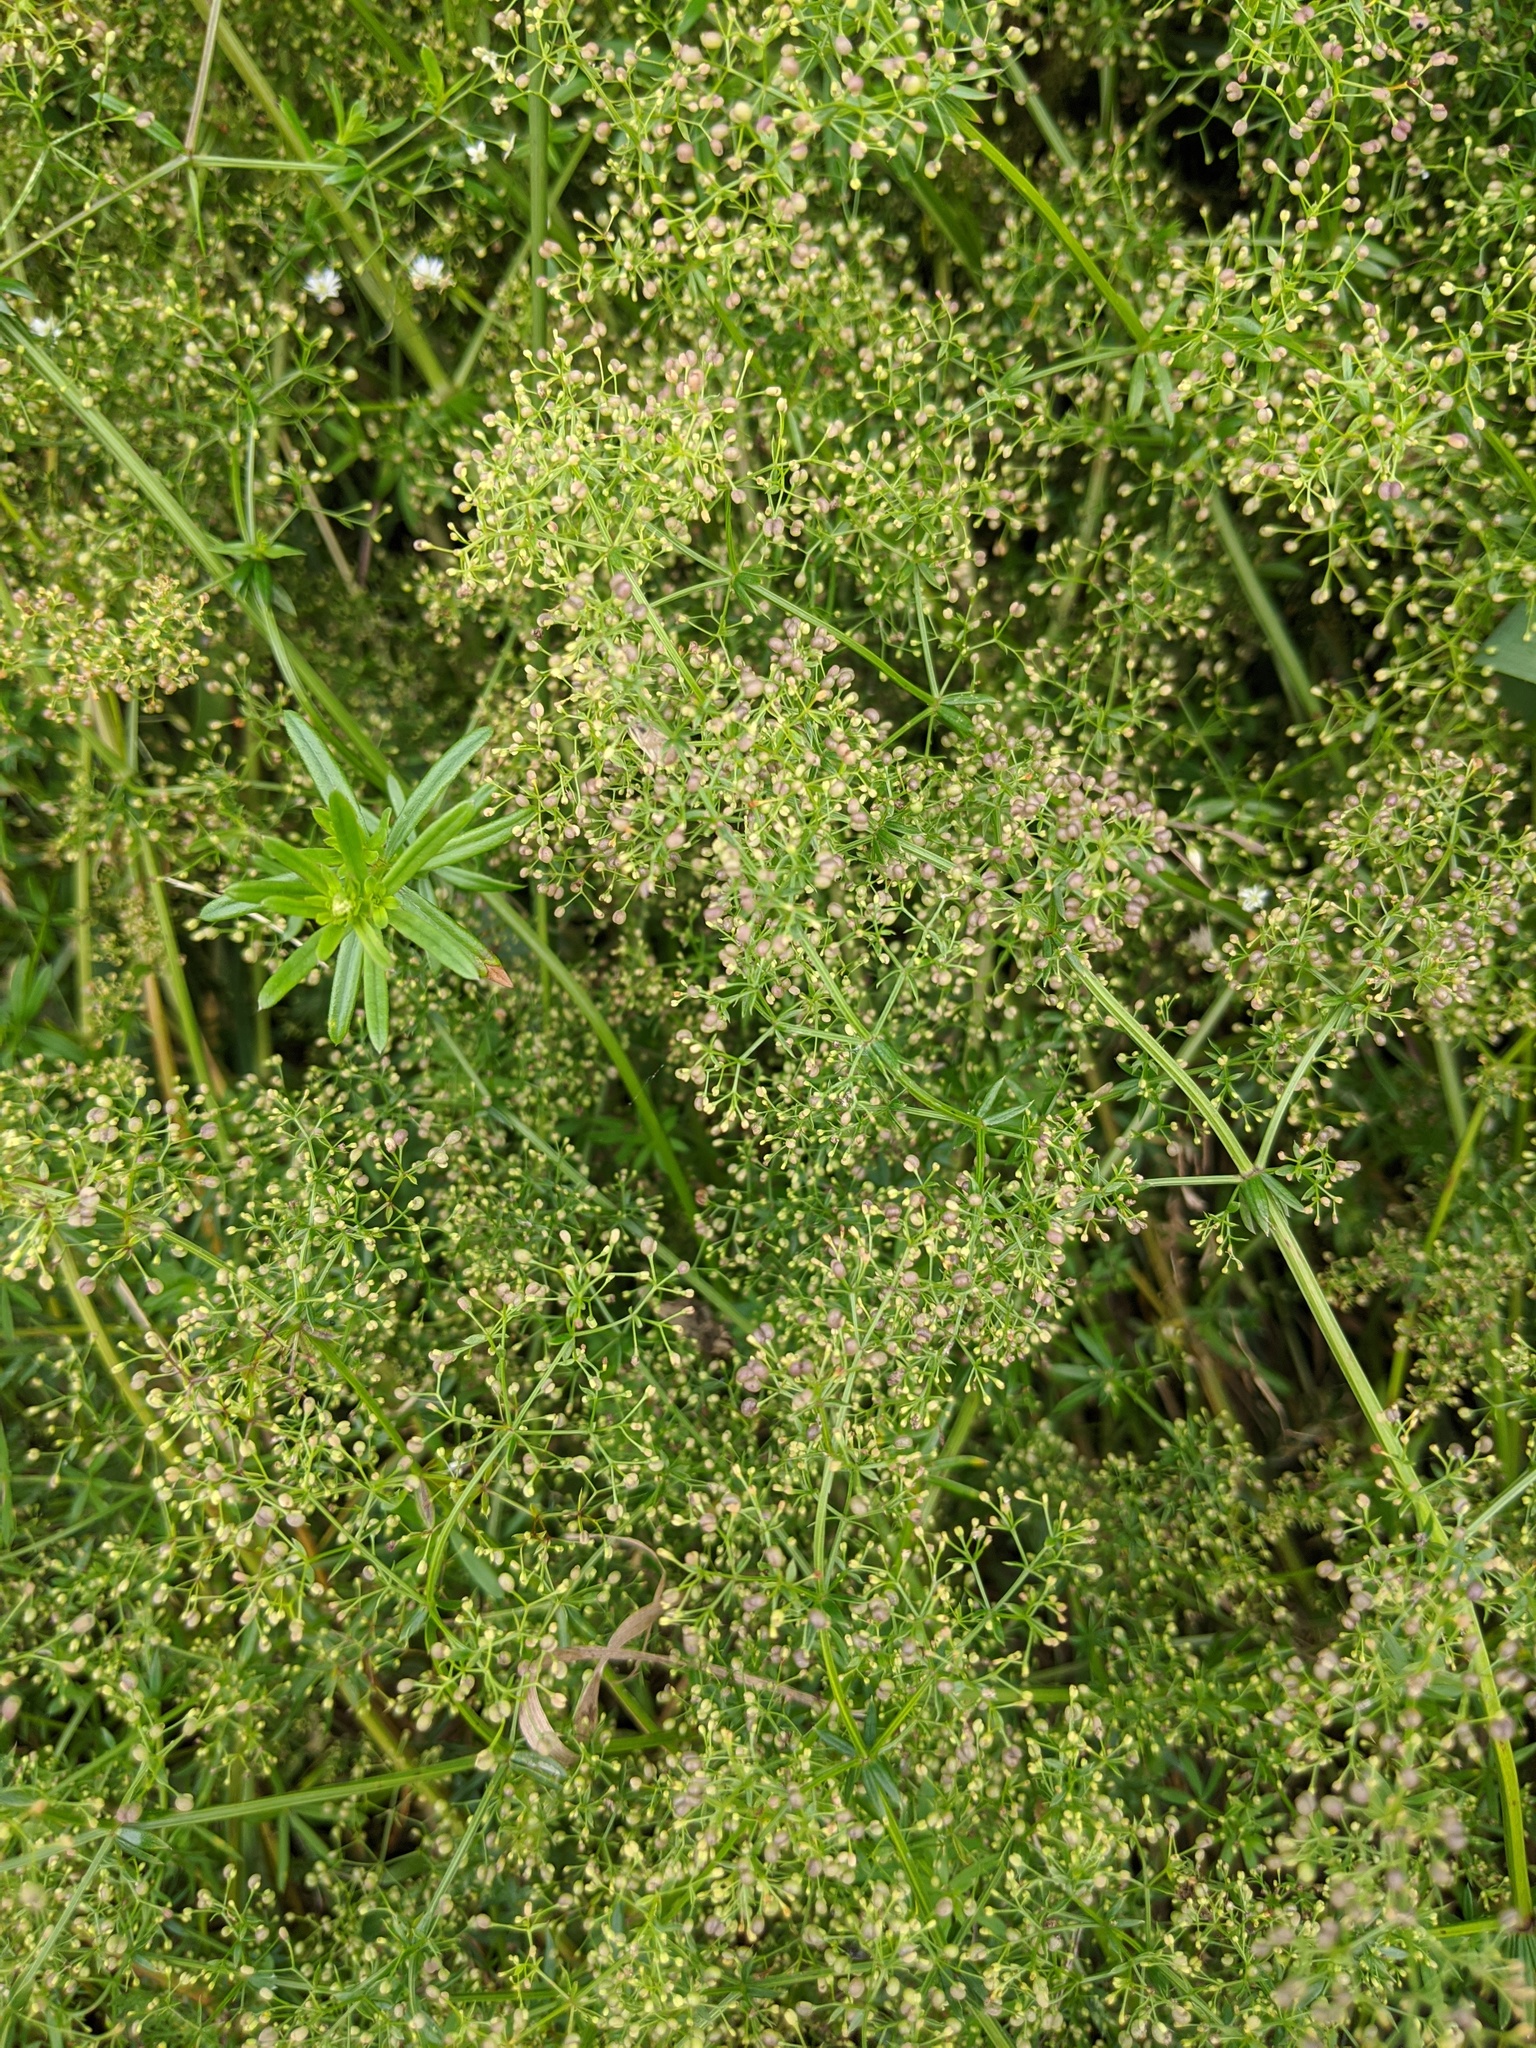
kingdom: Plantae
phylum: Tracheophyta
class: Magnoliopsida
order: Gentianales
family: Rubiaceae
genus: Galium
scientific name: Galium mollugo
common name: Hedge bedstraw
